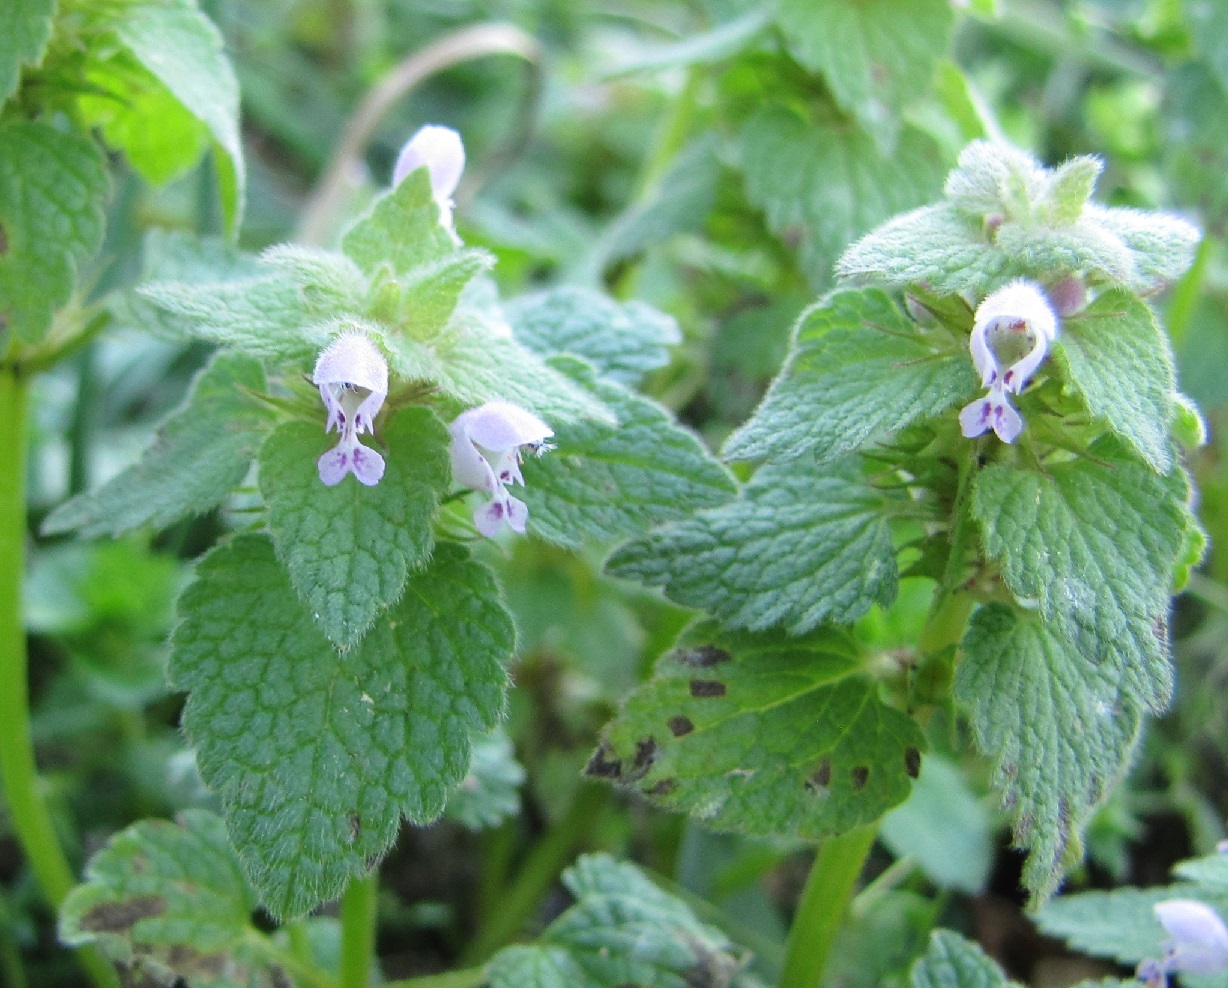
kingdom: Plantae
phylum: Tracheophyta
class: Magnoliopsida
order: Lamiales
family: Lamiaceae
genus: Lamium
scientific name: Lamium purpureum
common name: Red dead-nettle
